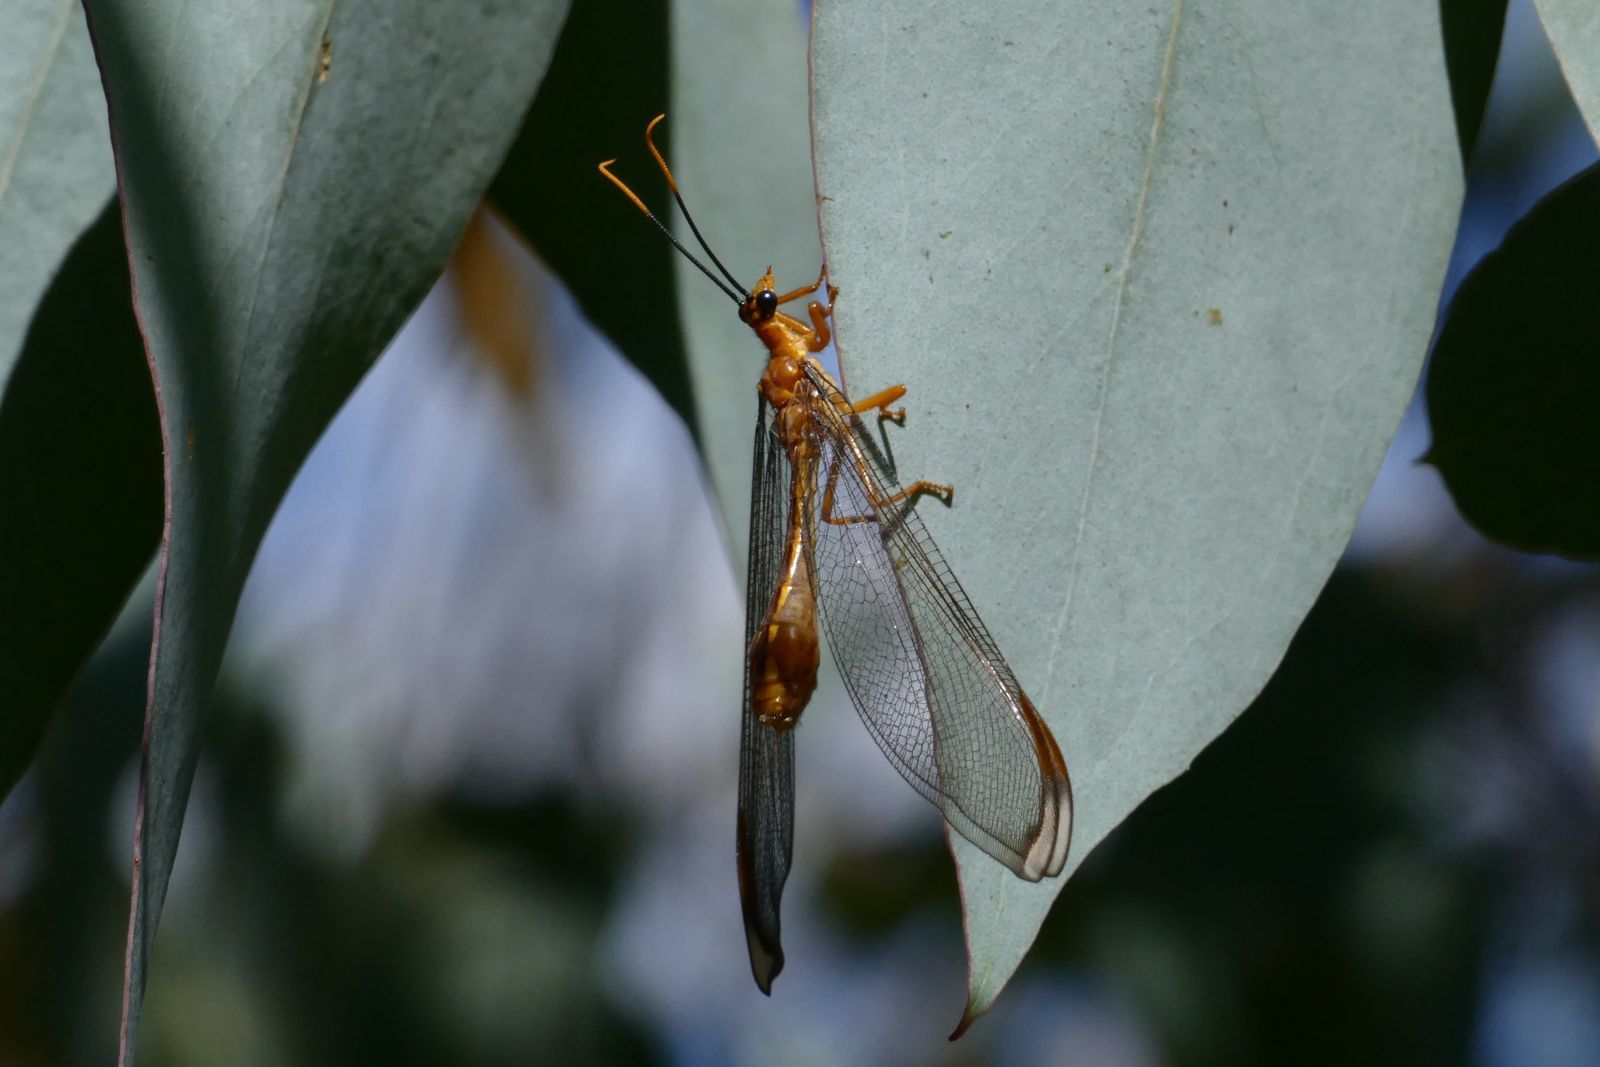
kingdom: Animalia
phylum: Arthropoda
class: Insecta
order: Neuroptera
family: Nymphidae
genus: Nymphes
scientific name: Nymphes myrmeleonoides
